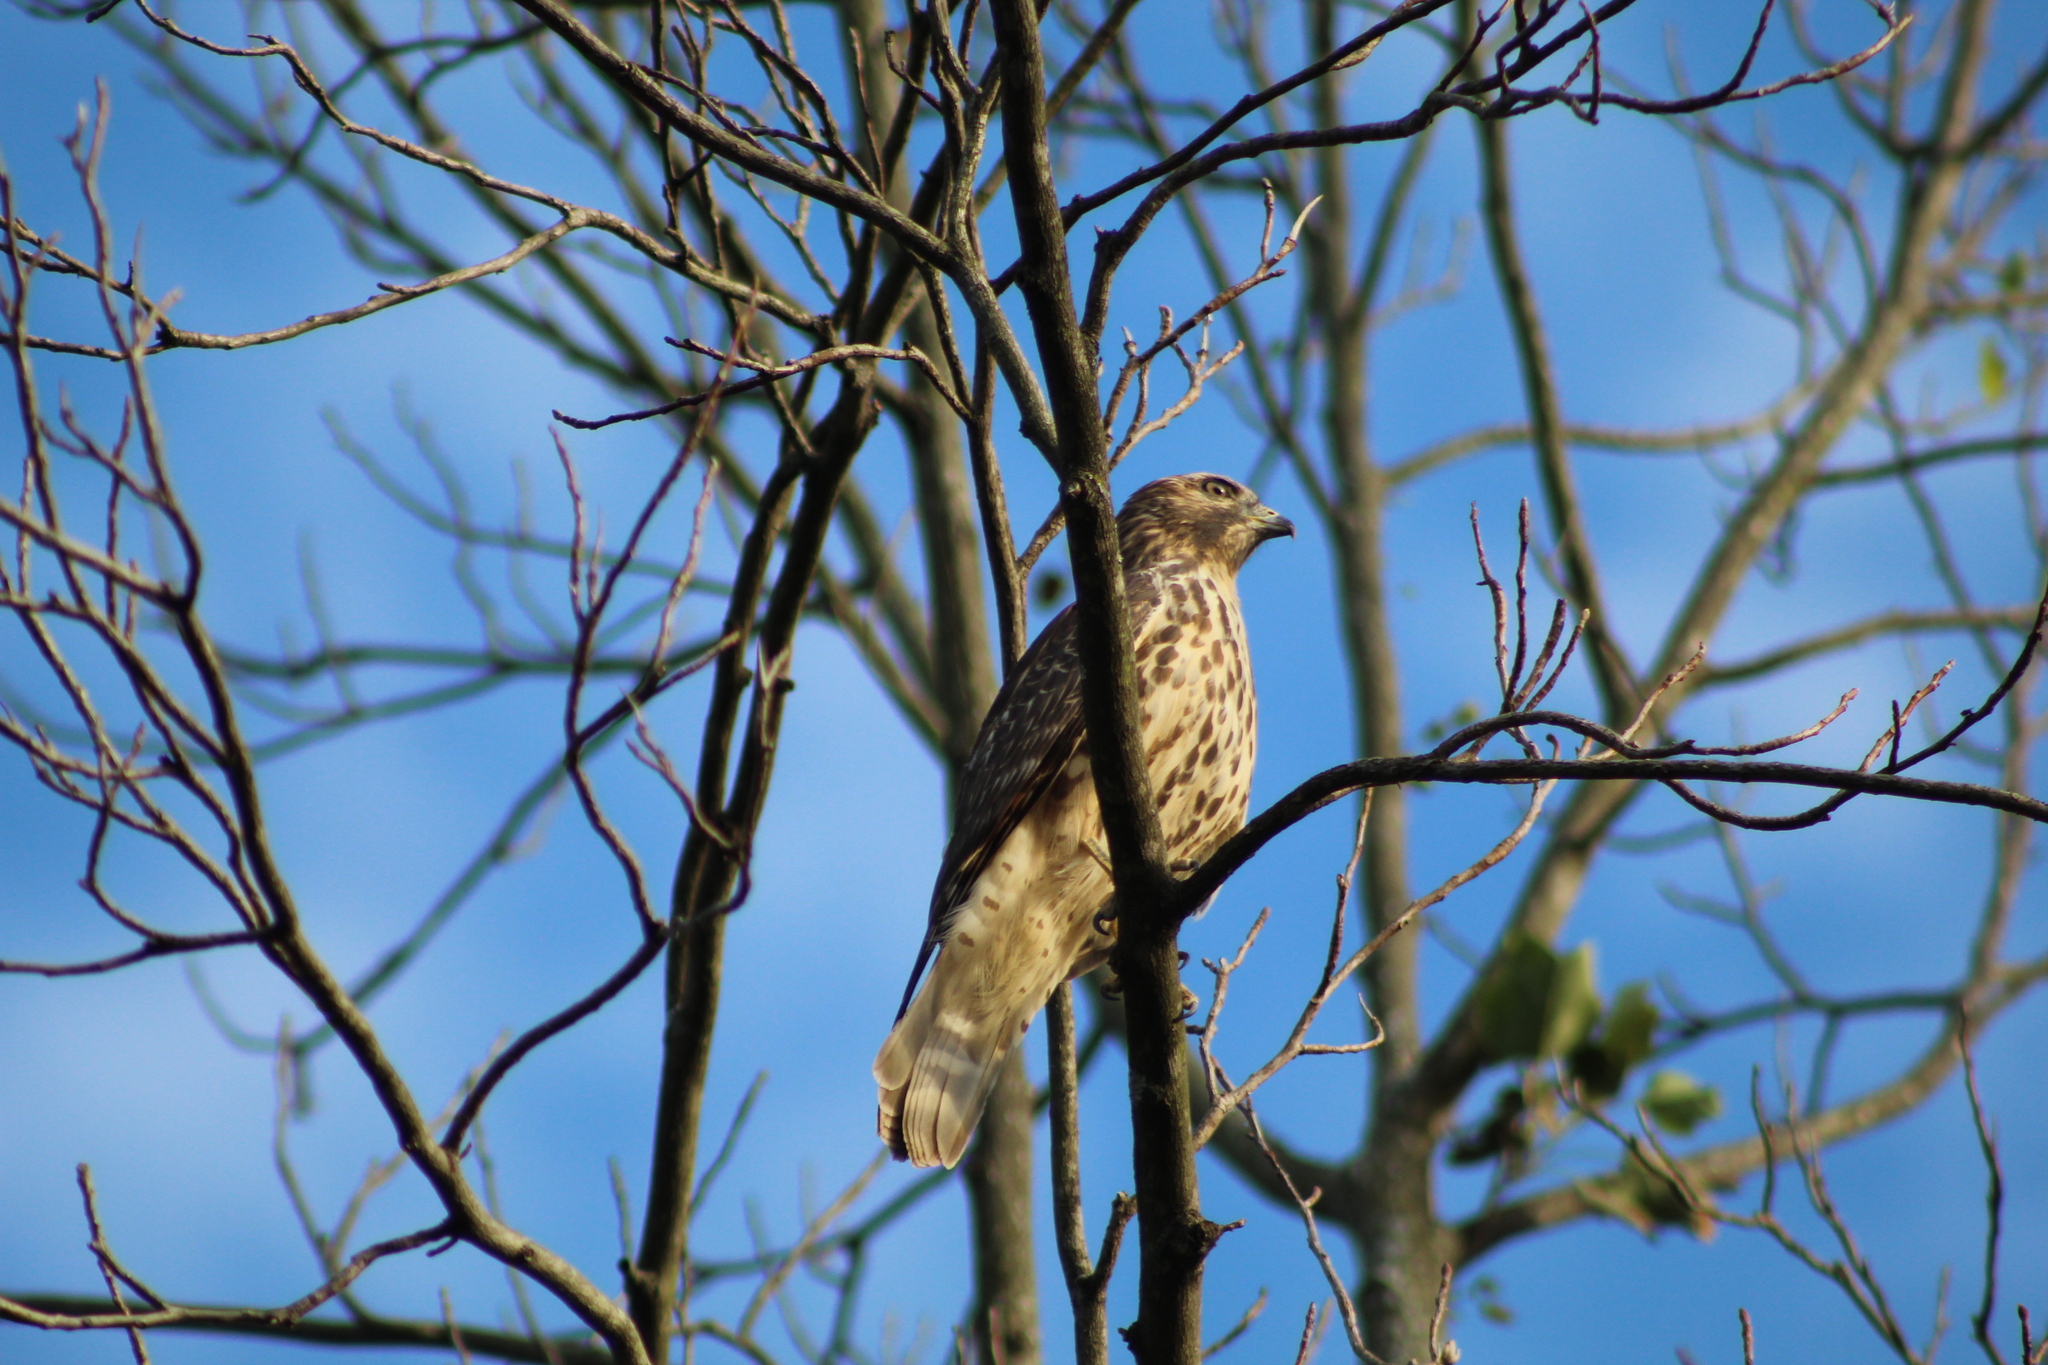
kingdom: Animalia
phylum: Chordata
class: Aves
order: Accipitriformes
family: Accipitridae
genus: Buteo
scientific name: Buteo lineatus
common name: Red-shouldered hawk
